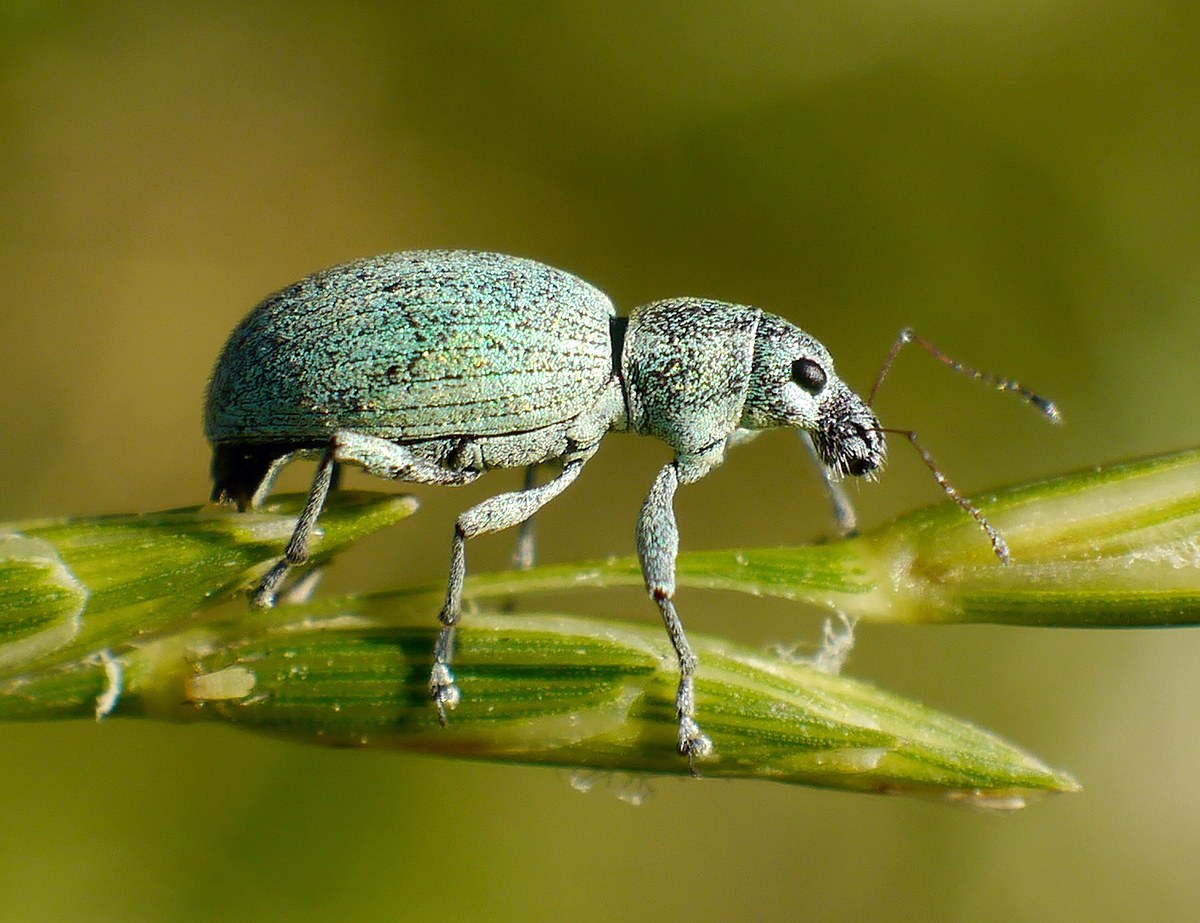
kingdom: Animalia
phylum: Arthropoda
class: Insecta
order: Coleoptera
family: Curculionidae
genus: Eusomus
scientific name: Eusomus ovulum
